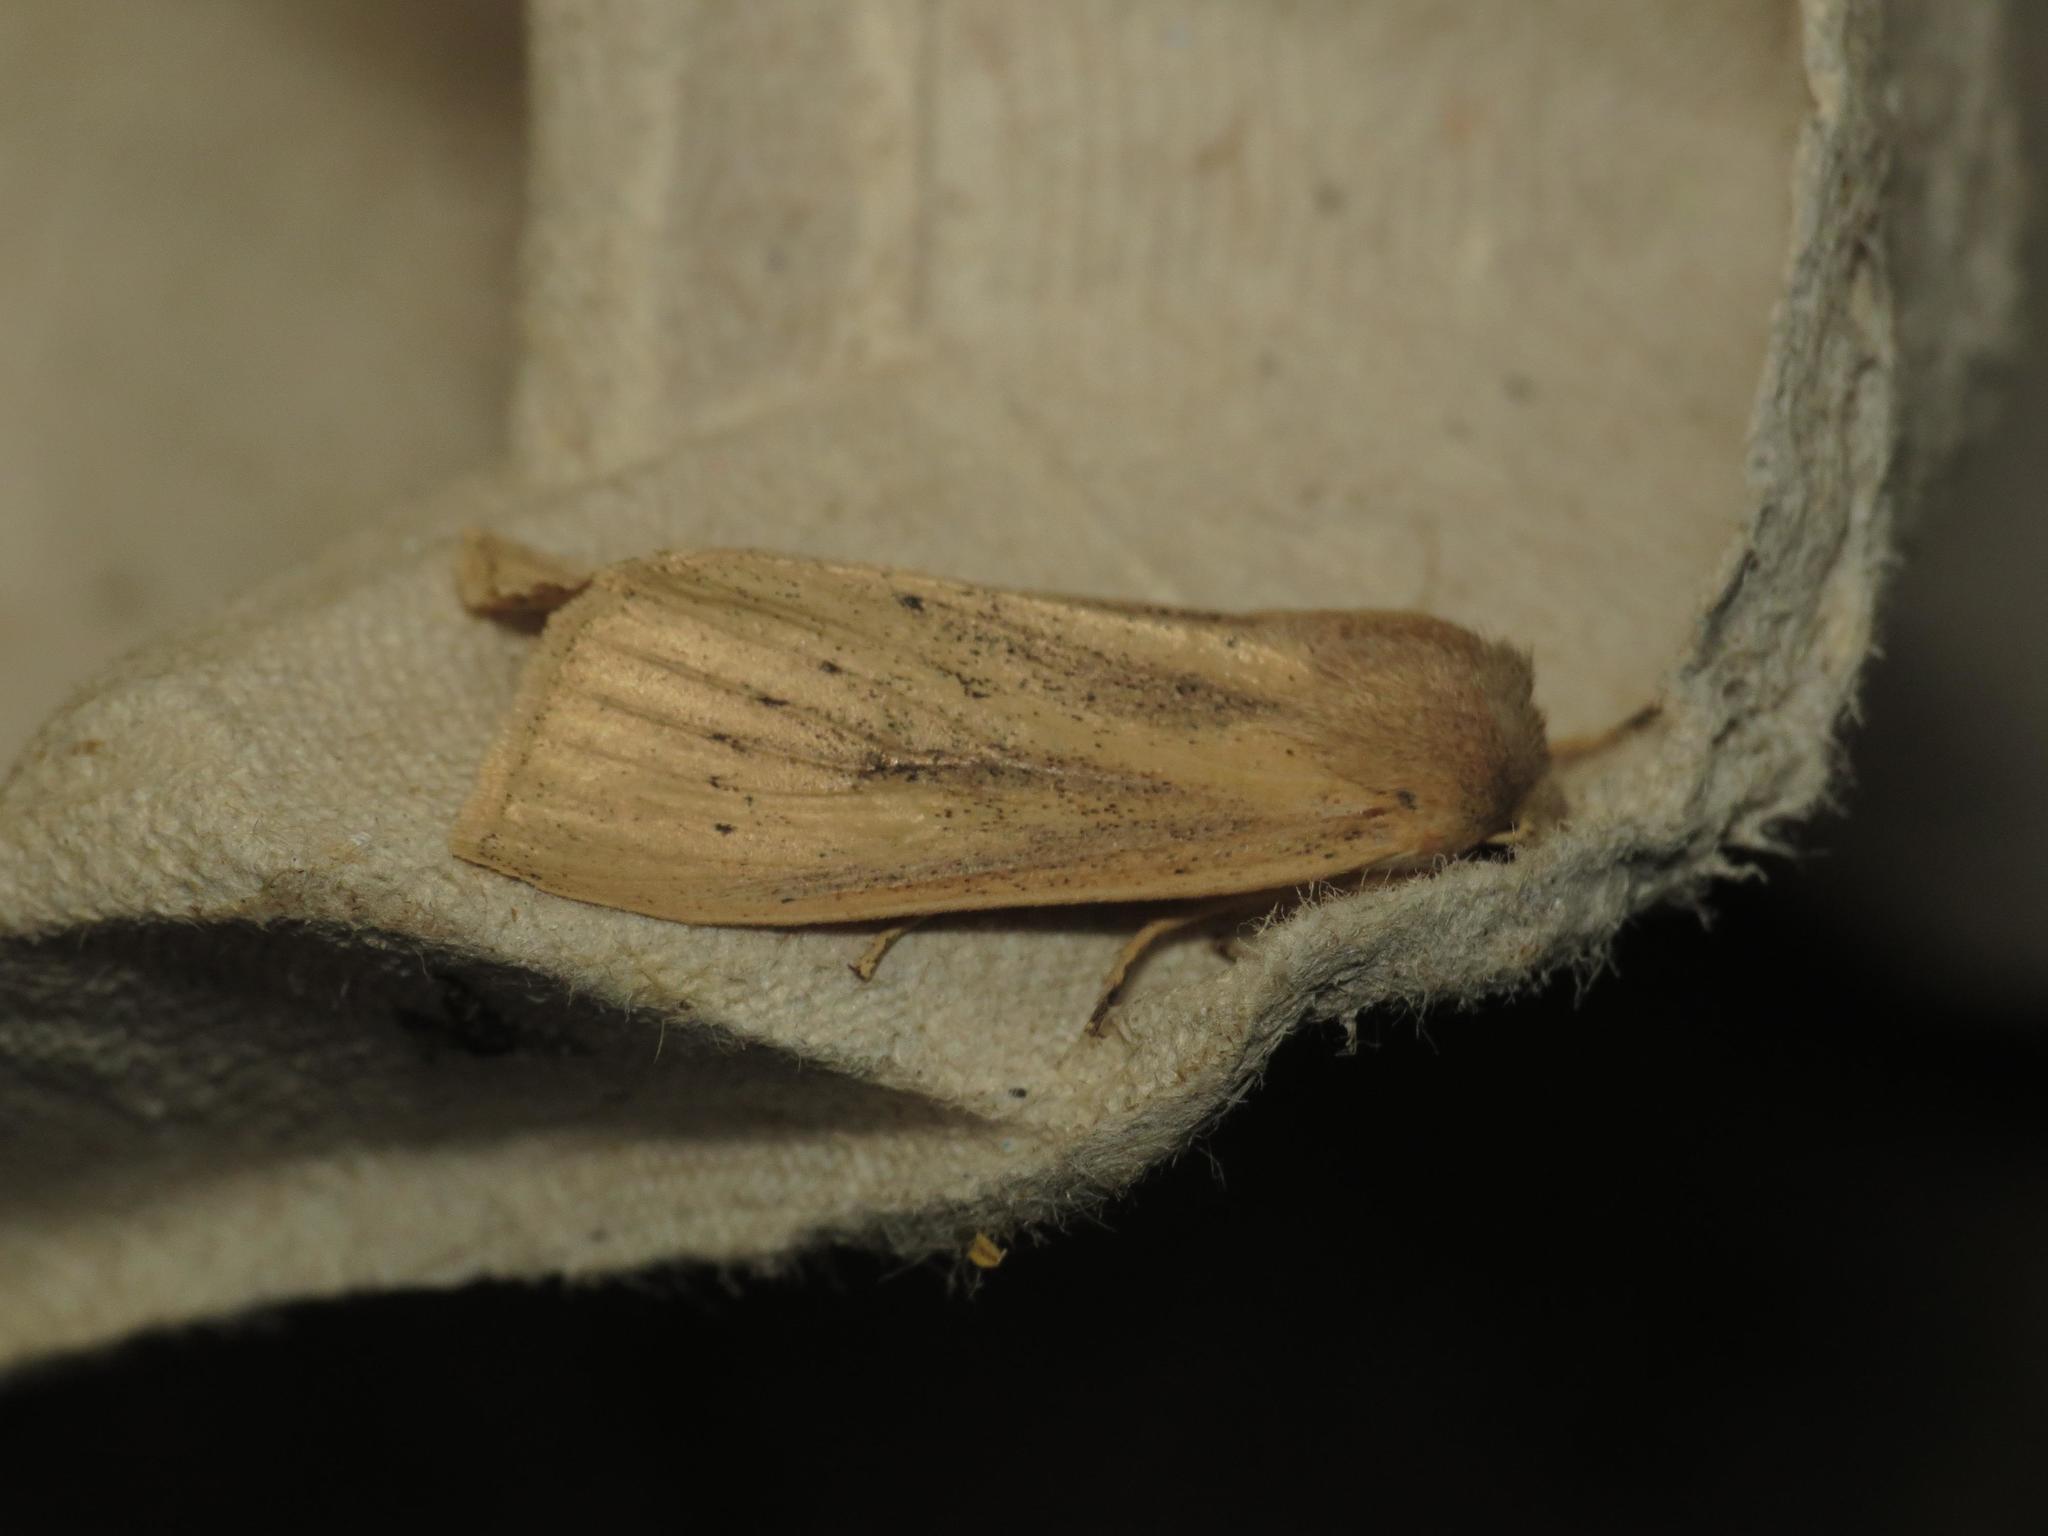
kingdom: Animalia
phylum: Arthropoda
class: Insecta
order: Lepidoptera
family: Noctuidae
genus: Rhizedra
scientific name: Rhizedra lutosa
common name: Large wainscot
